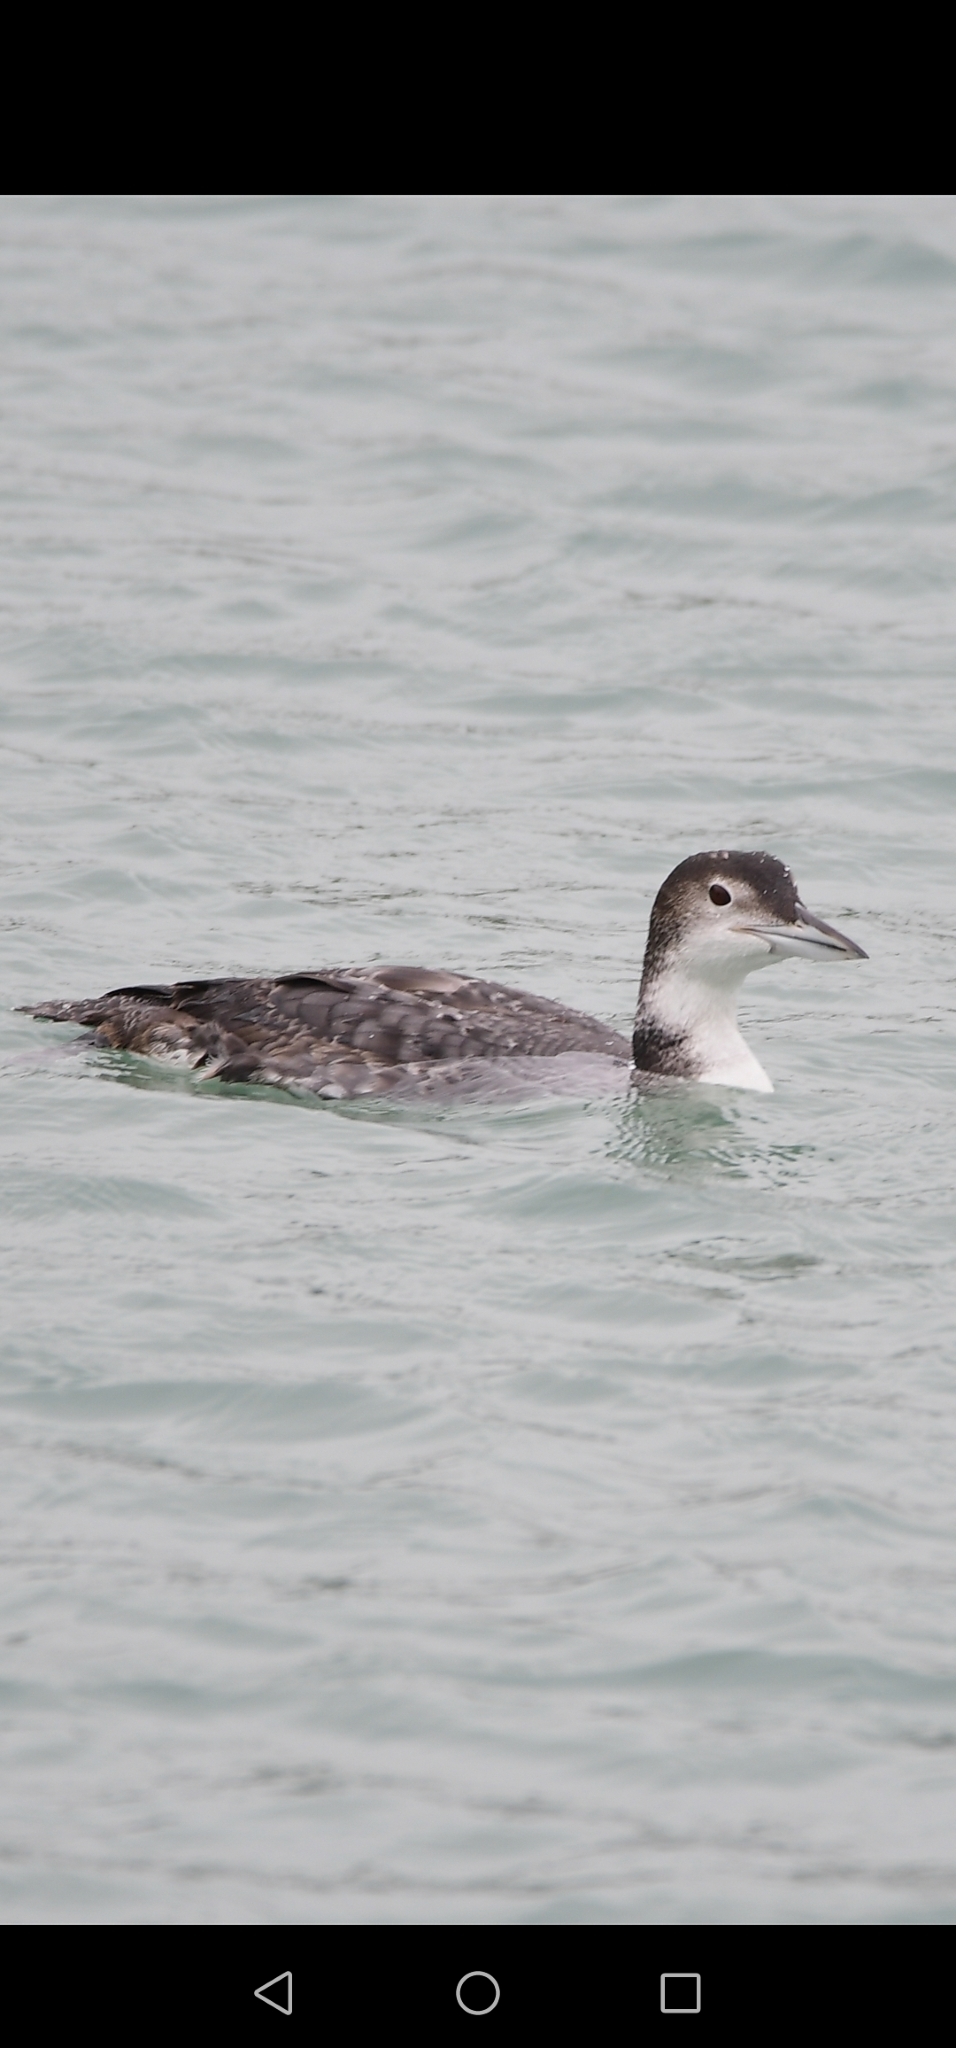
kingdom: Animalia
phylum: Chordata
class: Aves
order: Gaviiformes
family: Gaviidae
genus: Gavia
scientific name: Gavia immer
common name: Common loon
